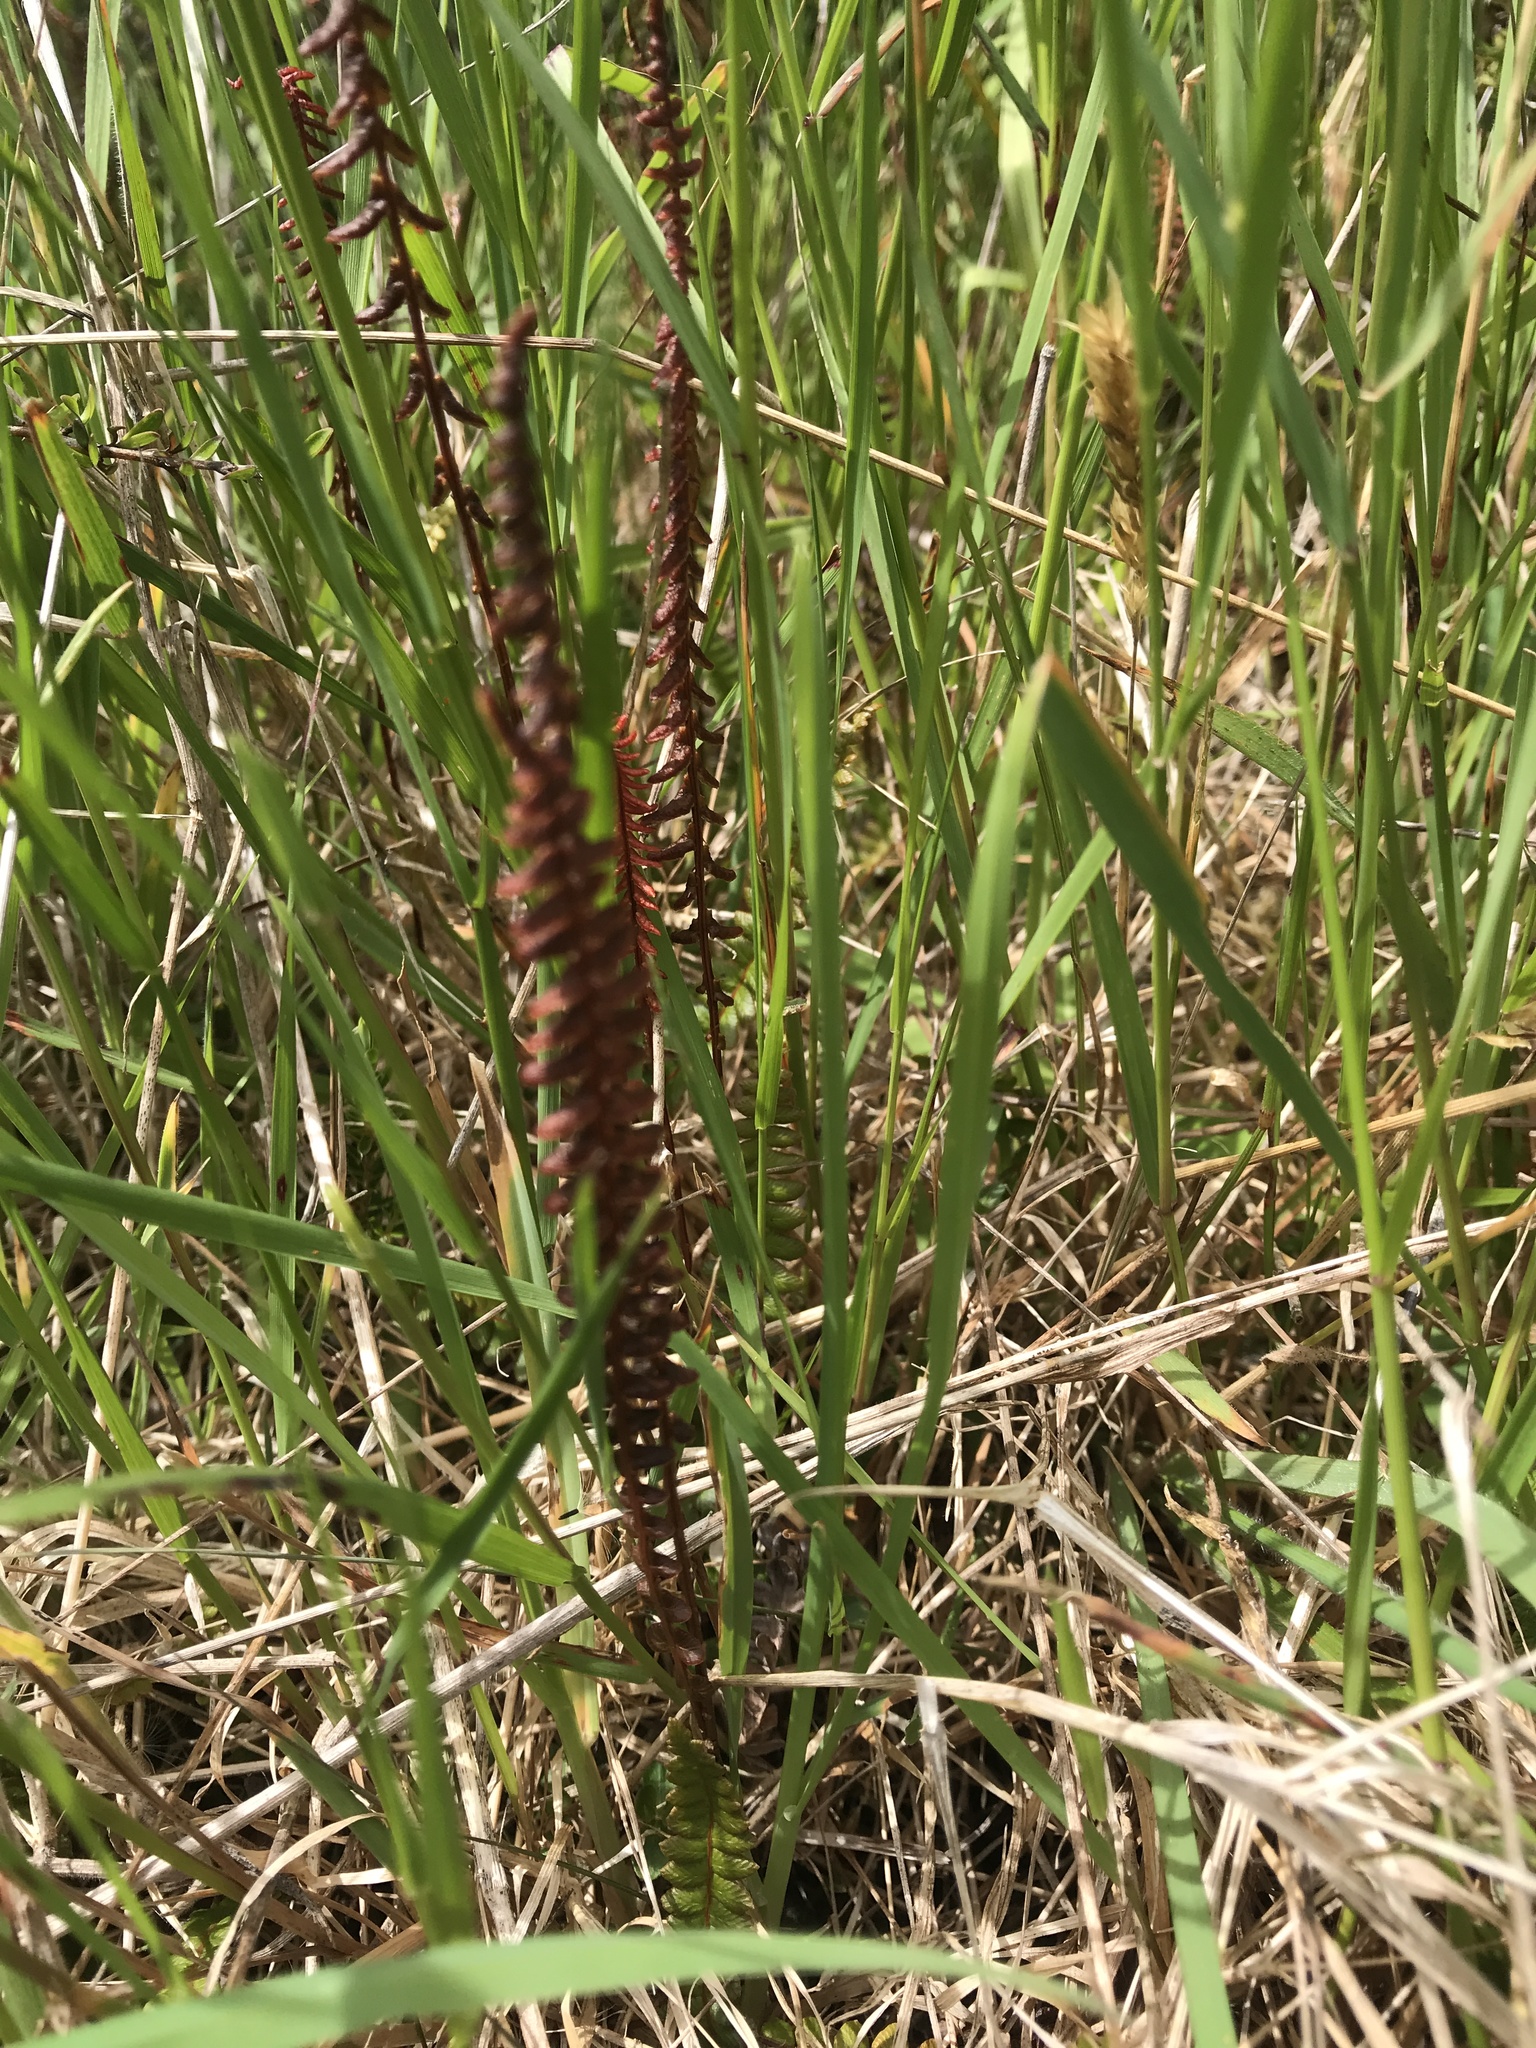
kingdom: Plantae
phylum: Tracheophyta
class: Polypodiopsida
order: Polypodiales
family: Blechnaceae
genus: Austroblechnum
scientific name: Austroblechnum penna-marina
